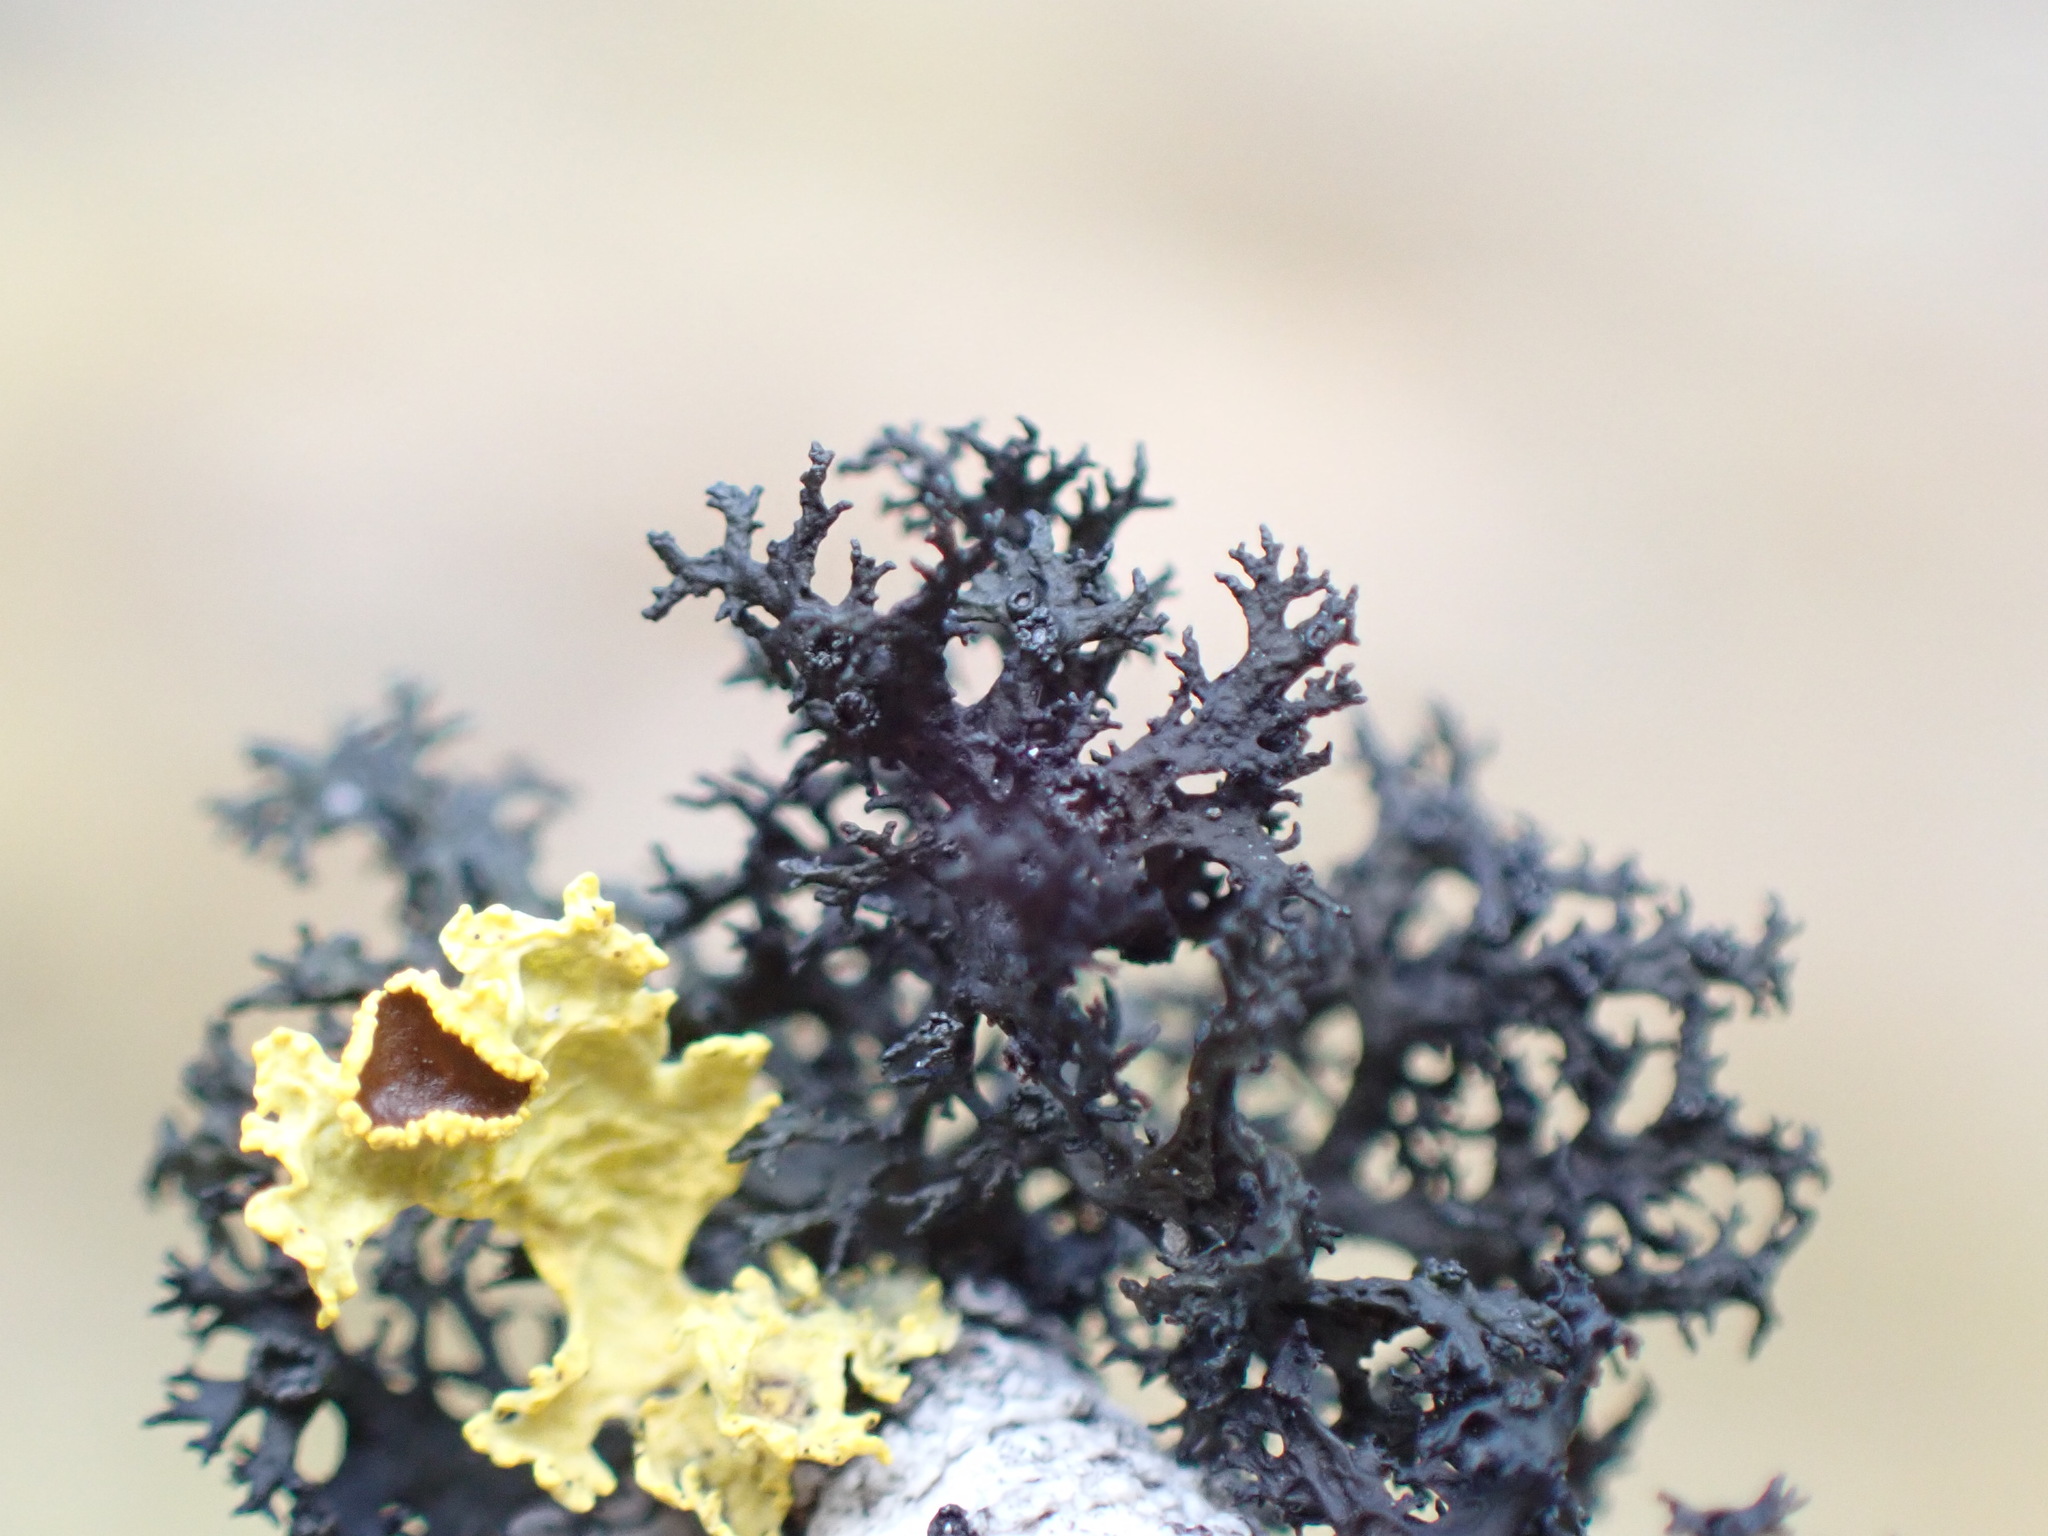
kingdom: Fungi
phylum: Ascomycota
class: Lecanoromycetes
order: Lecanorales
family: Parmeliaceae
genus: Nephromopsis
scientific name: Nephromopsis merrillii
